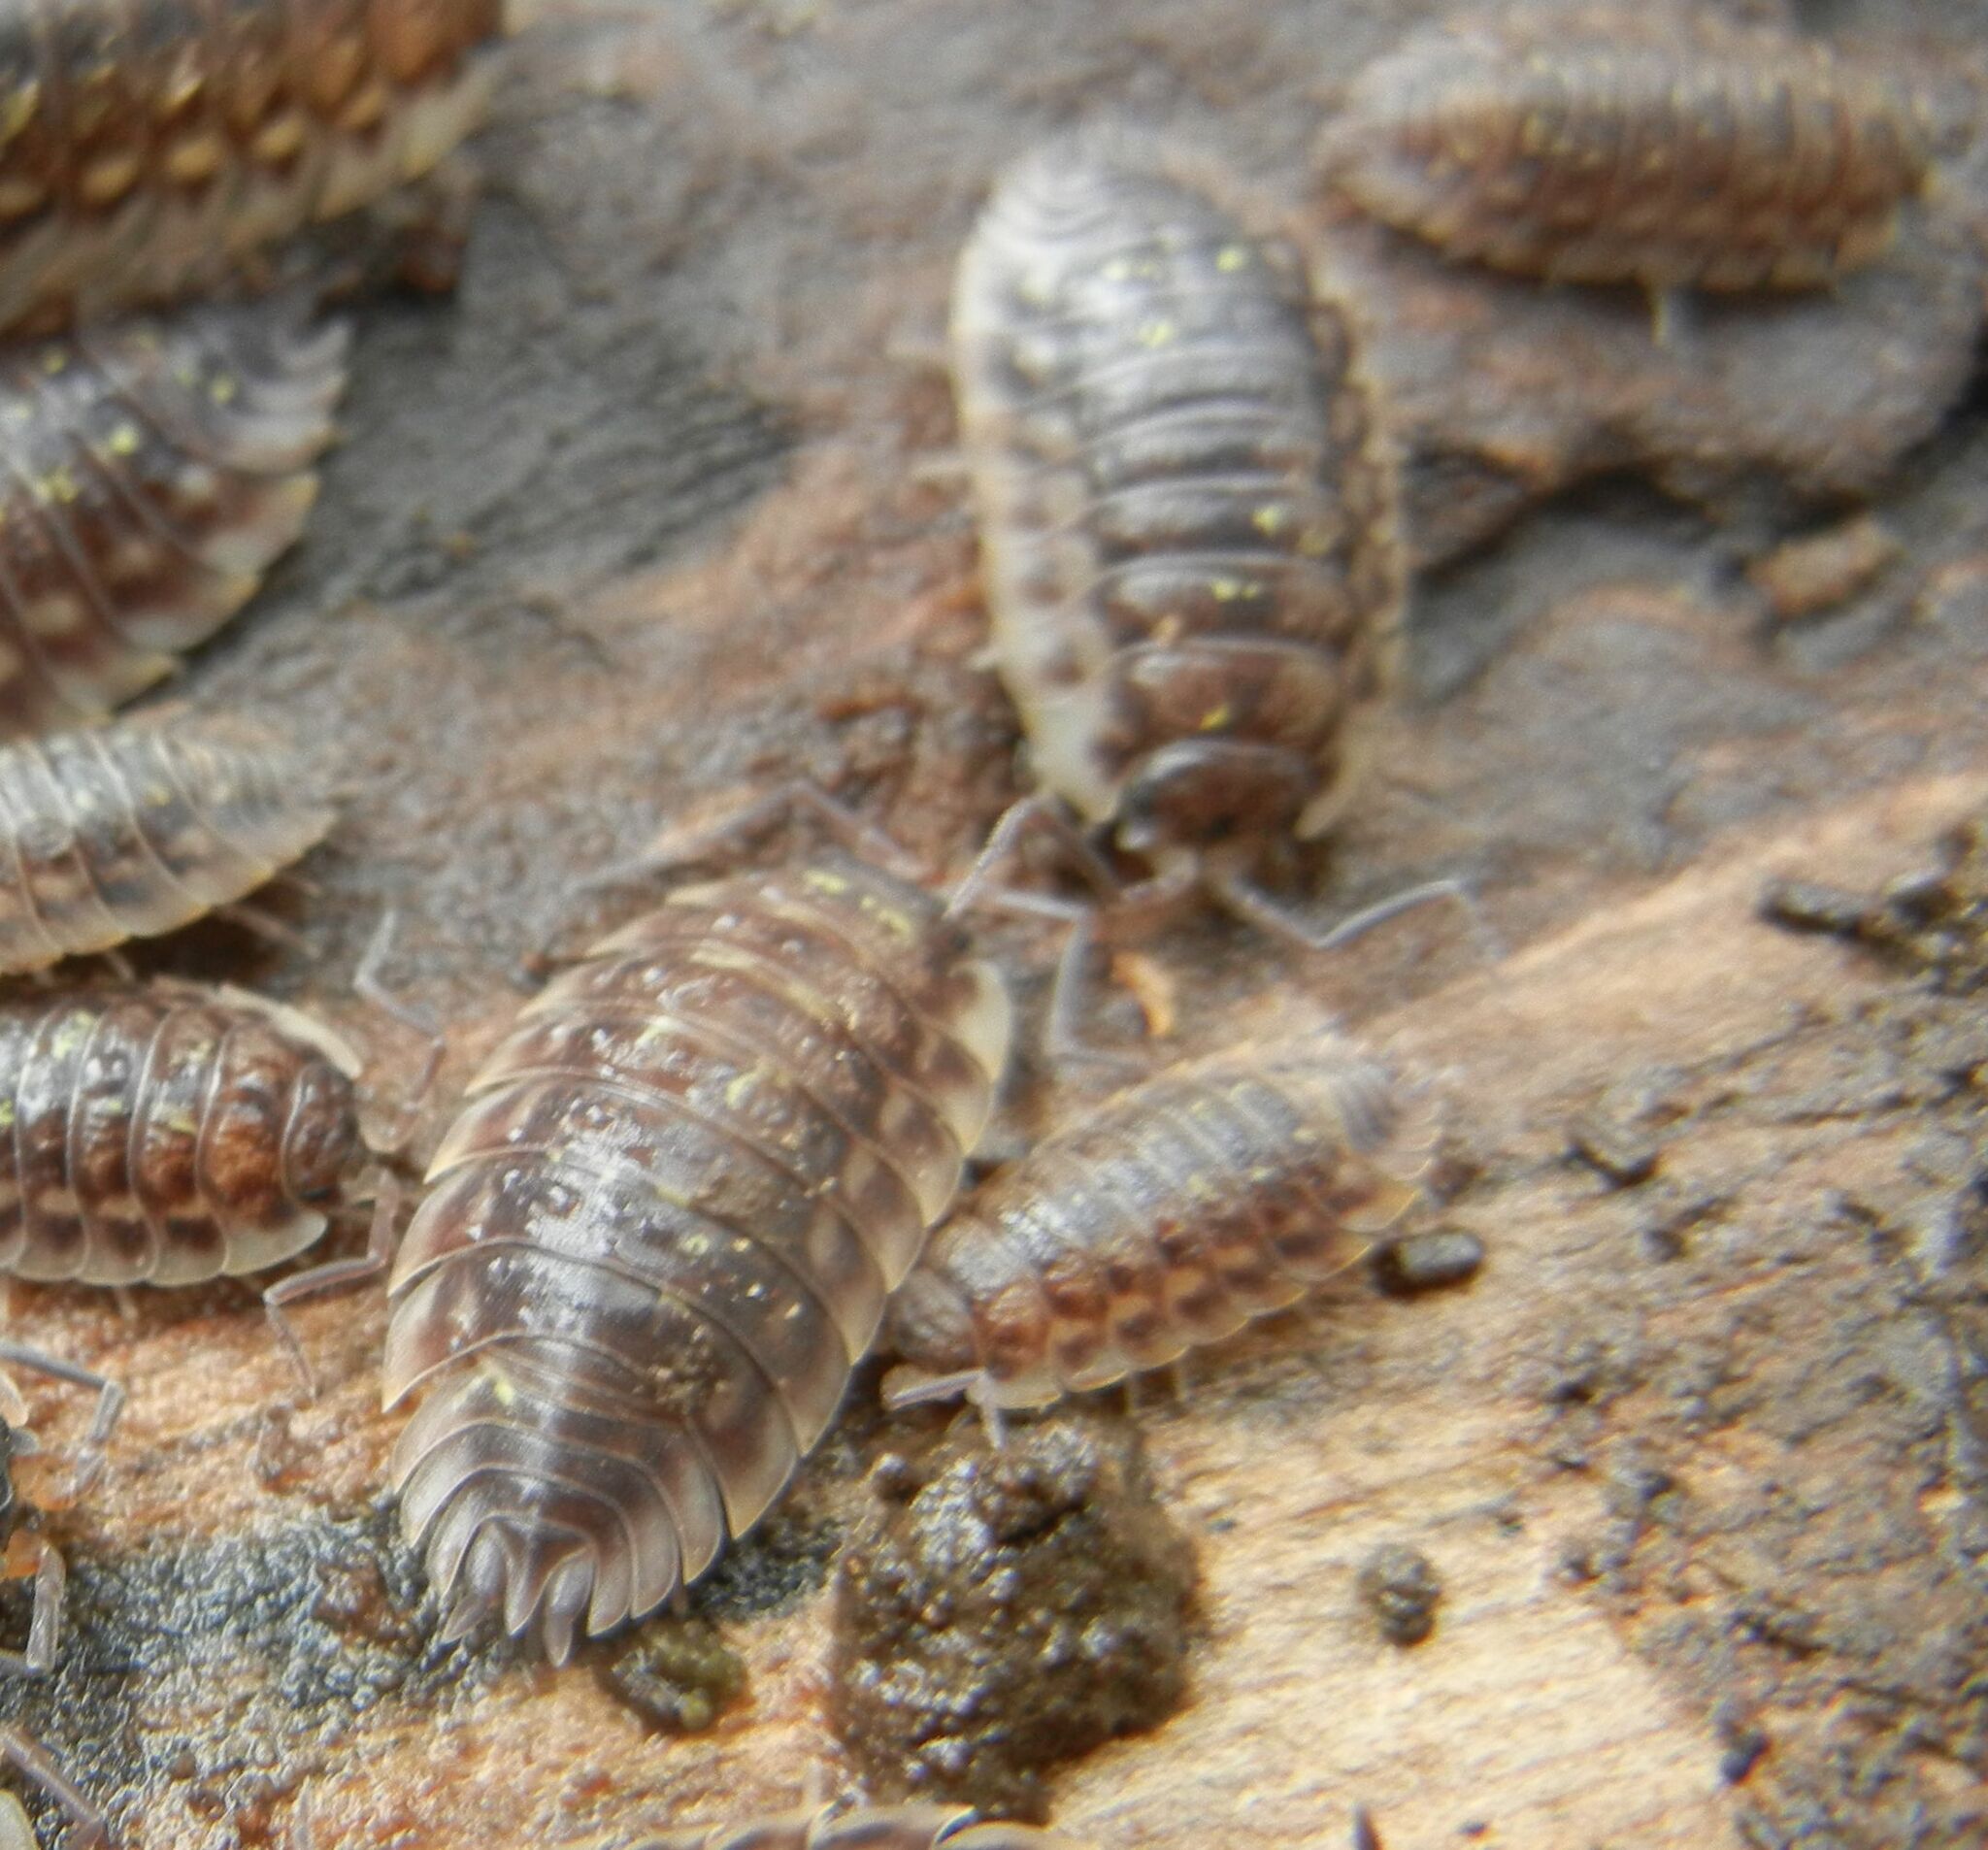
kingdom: Animalia
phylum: Arthropoda
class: Malacostraca
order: Isopoda
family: Oniscidae
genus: Oniscus
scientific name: Oniscus asellus
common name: Common shiny woodlouse
